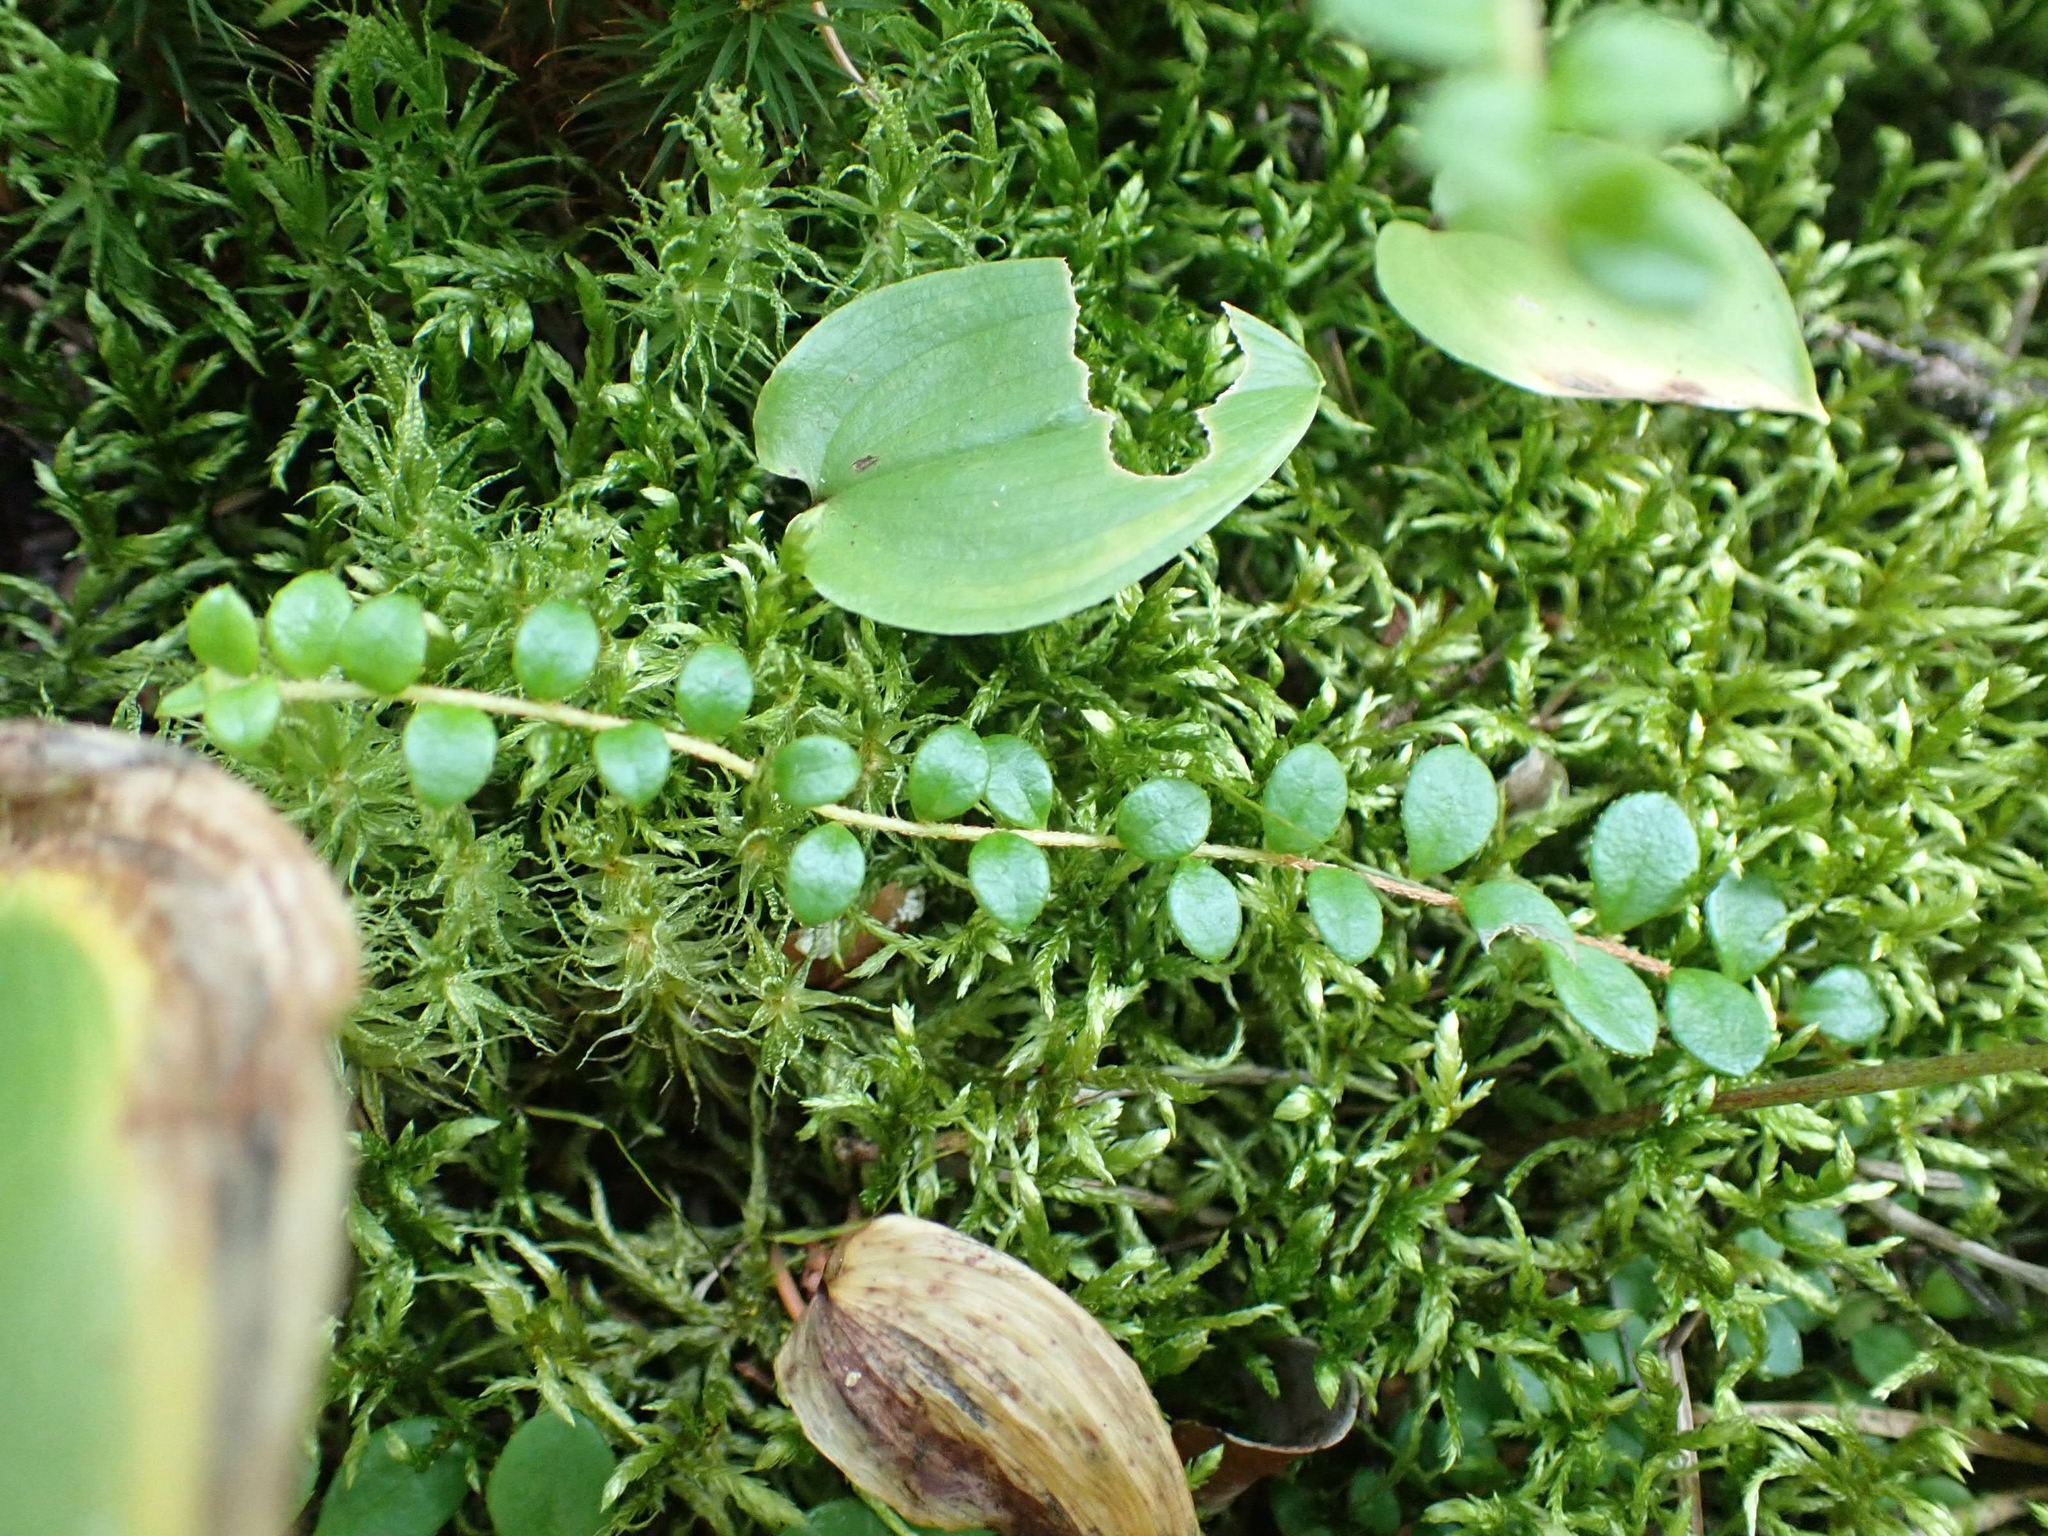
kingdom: Plantae
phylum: Tracheophyta
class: Magnoliopsida
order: Ericales
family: Ericaceae
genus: Gaultheria
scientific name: Gaultheria hispidula
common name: Cancer wintergreen
